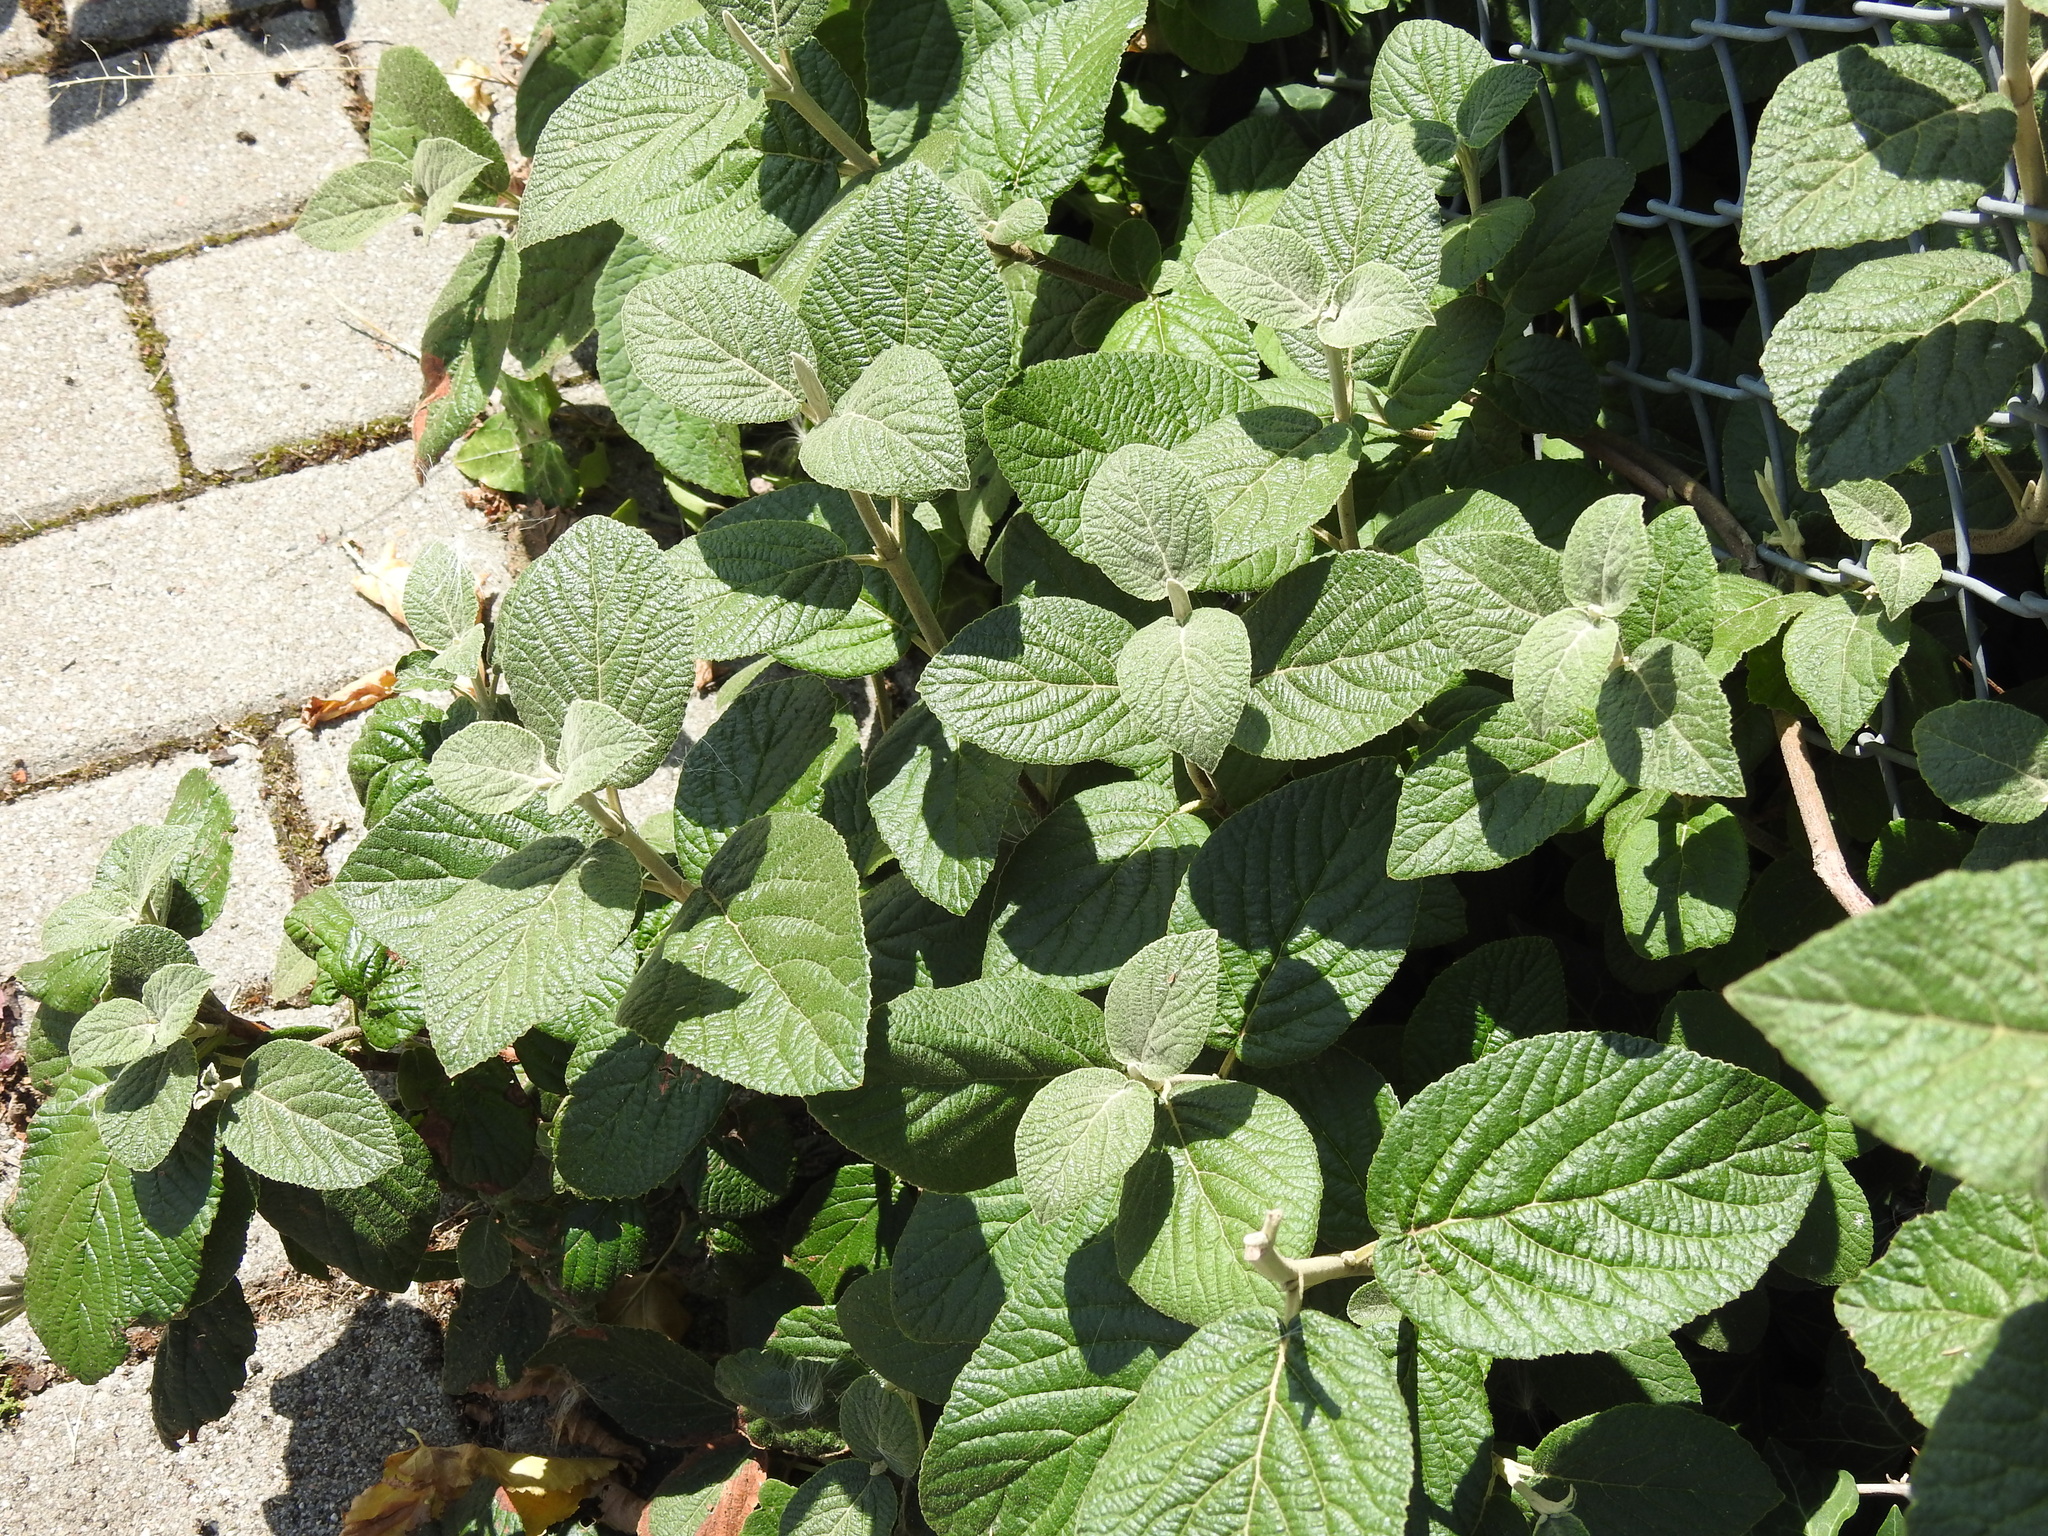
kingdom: Plantae
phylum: Tracheophyta
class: Magnoliopsida
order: Dipsacales
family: Viburnaceae
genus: Viburnum
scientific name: Viburnum lantana
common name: Wayfaring tree
